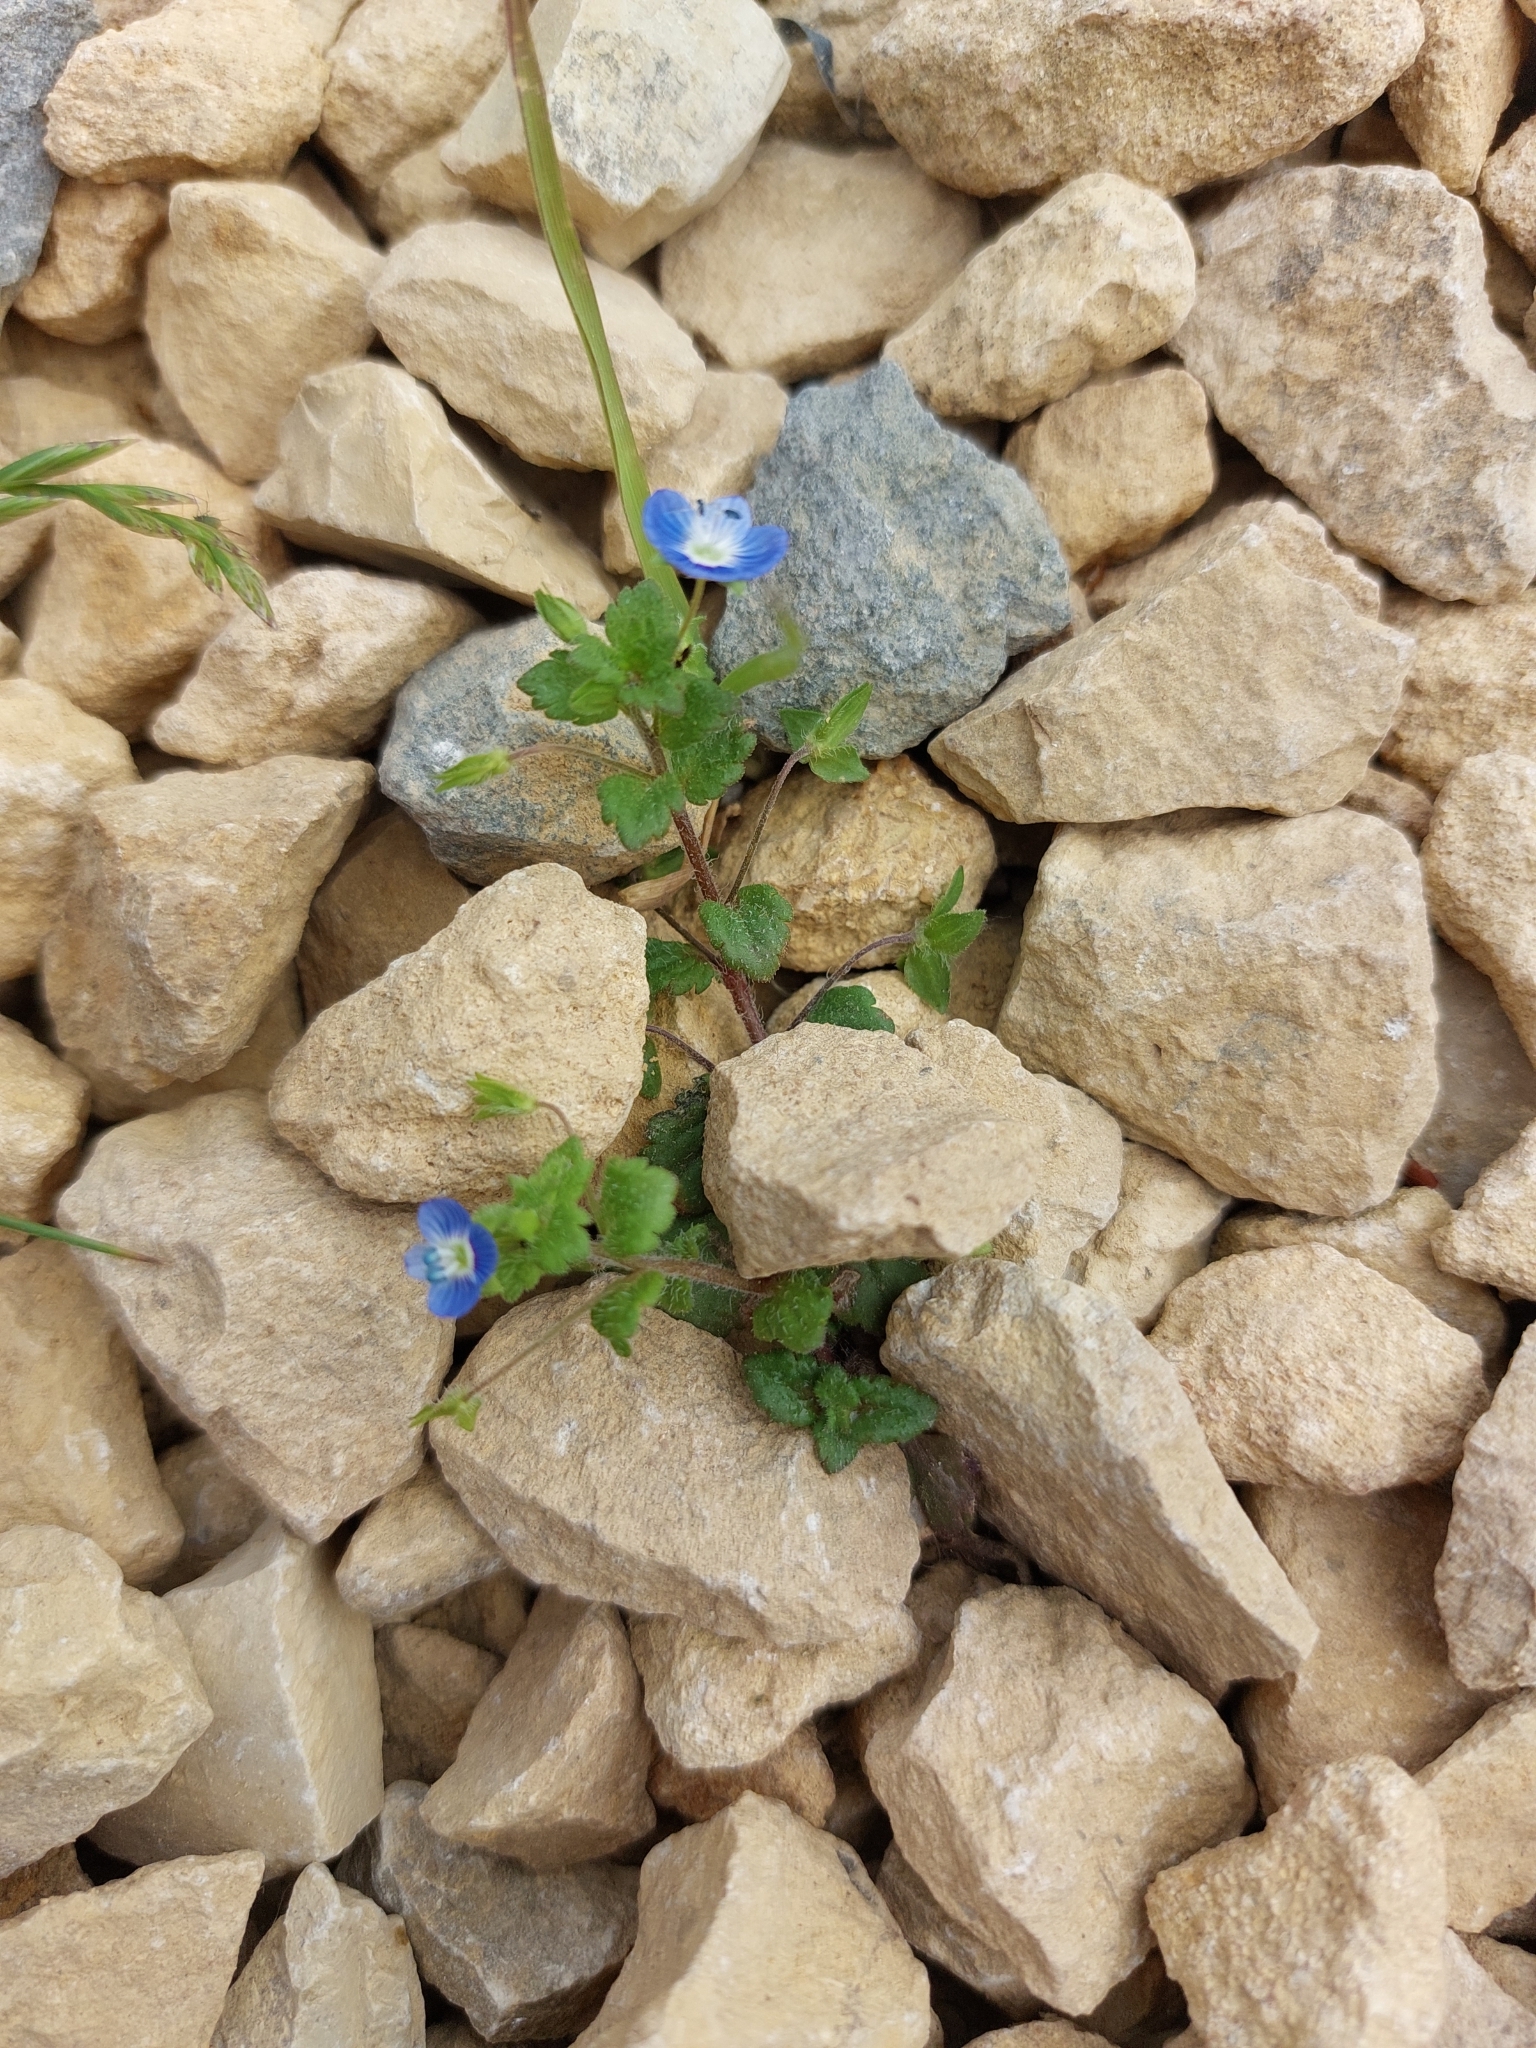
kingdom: Plantae
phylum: Tracheophyta
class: Magnoliopsida
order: Lamiales
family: Plantaginaceae
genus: Veronica
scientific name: Veronica persica
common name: Common field-speedwell
